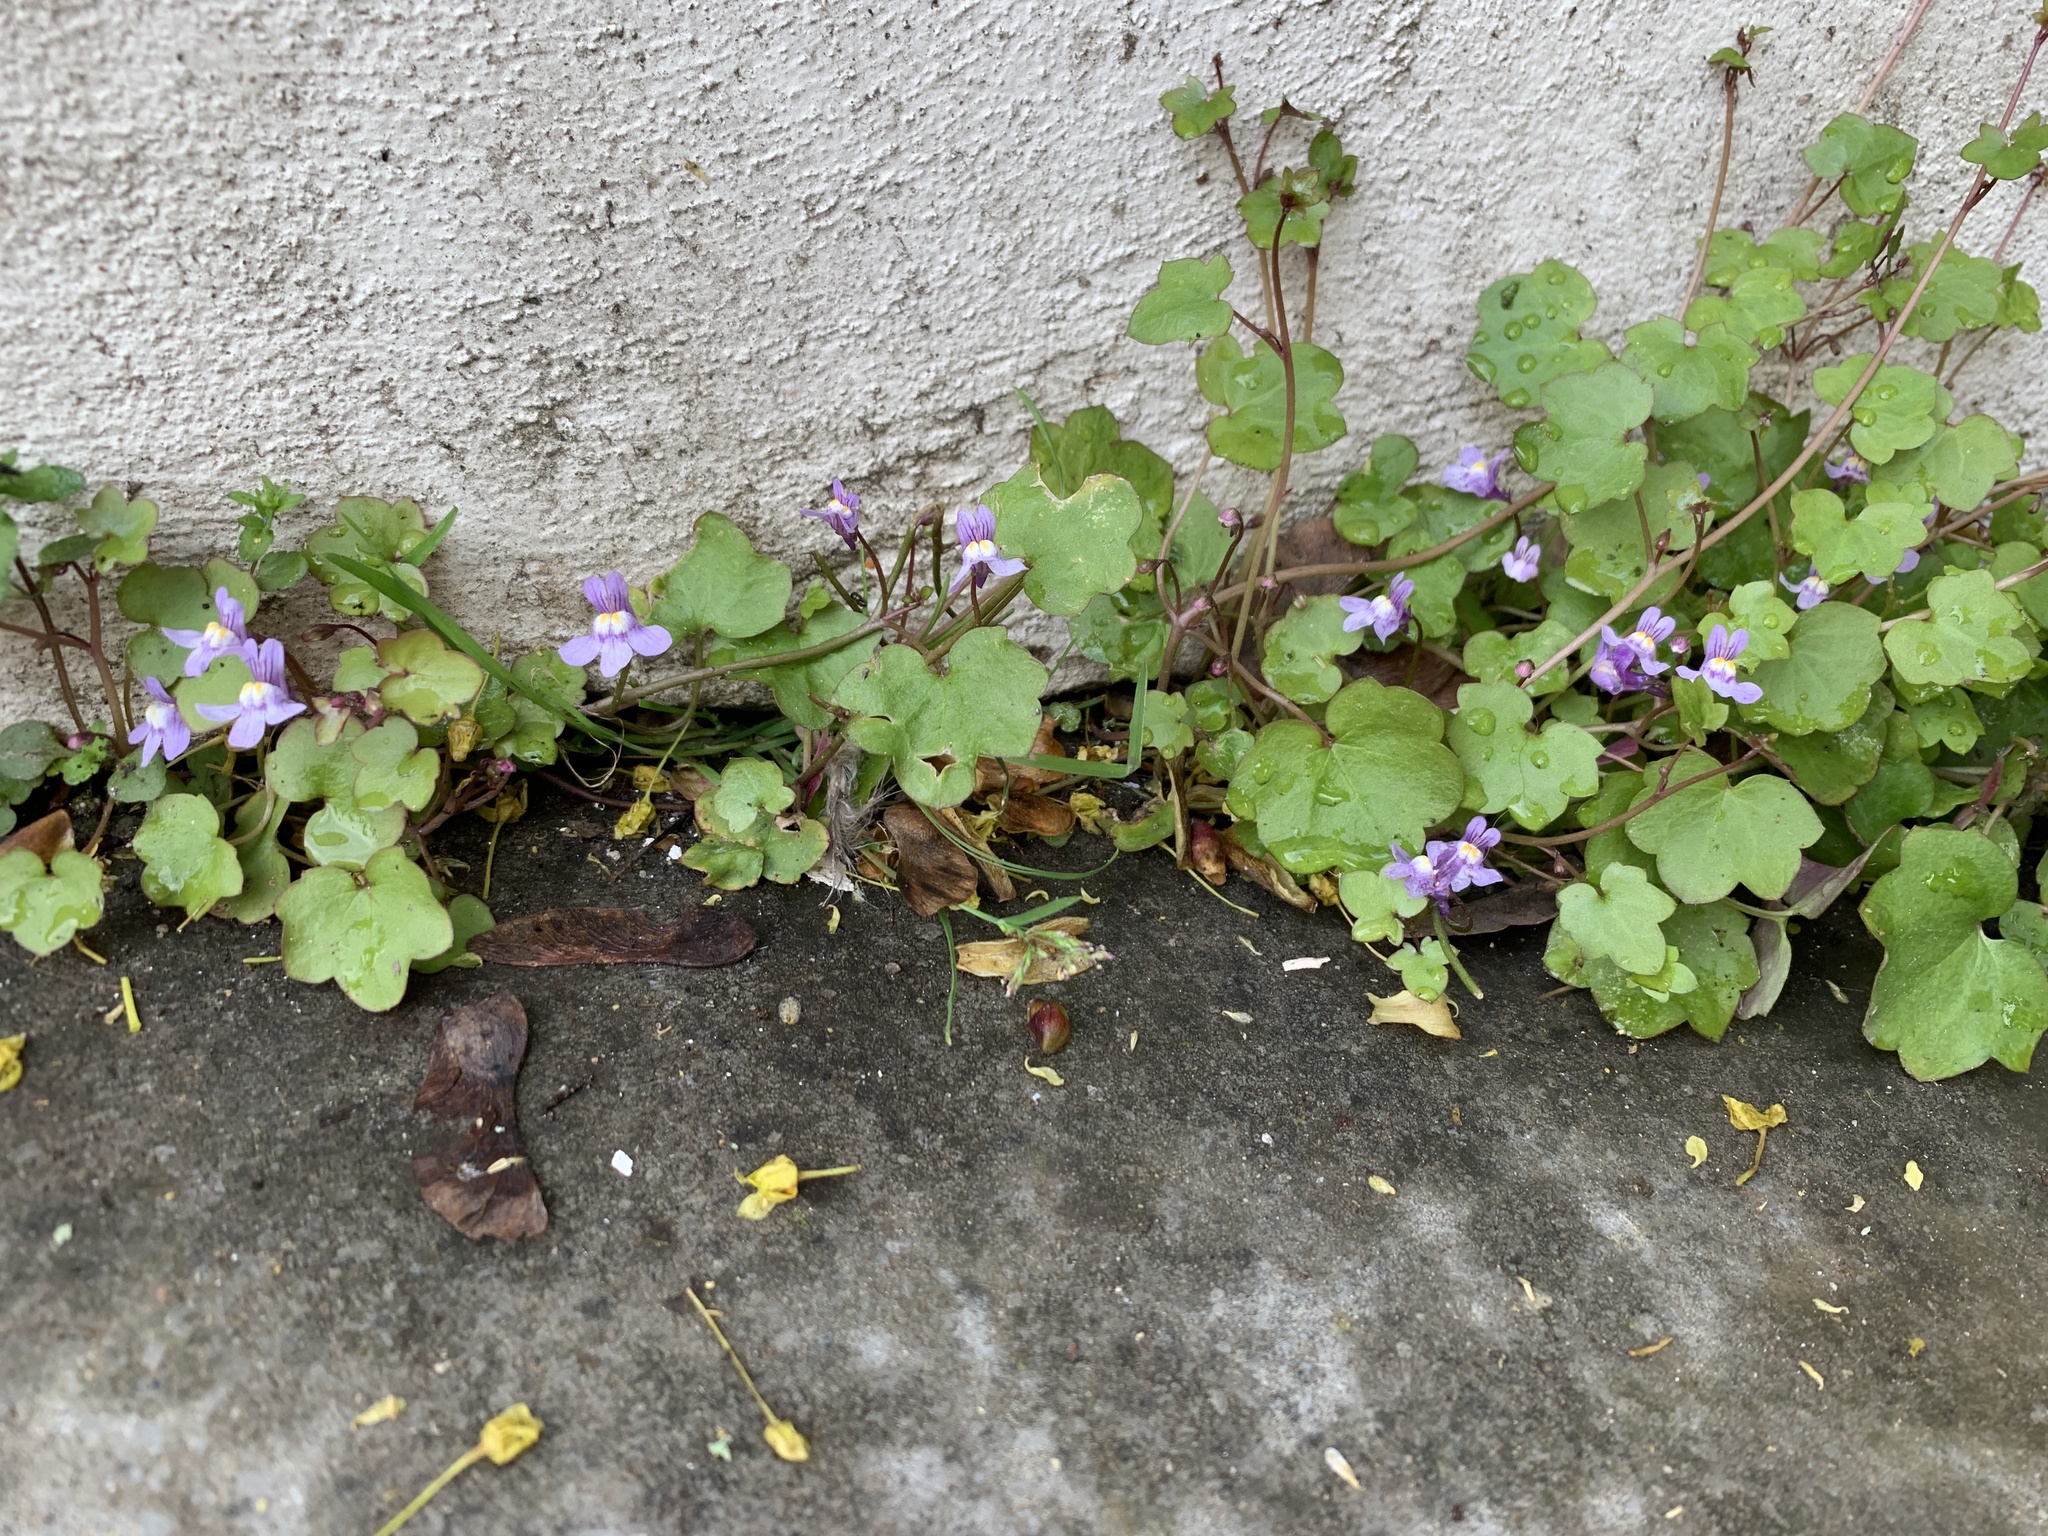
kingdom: Plantae
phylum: Tracheophyta
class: Magnoliopsida
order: Lamiales
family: Plantaginaceae
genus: Cymbalaria
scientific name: Cymbalaria muralis
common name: Ivy-leaved toadflax
